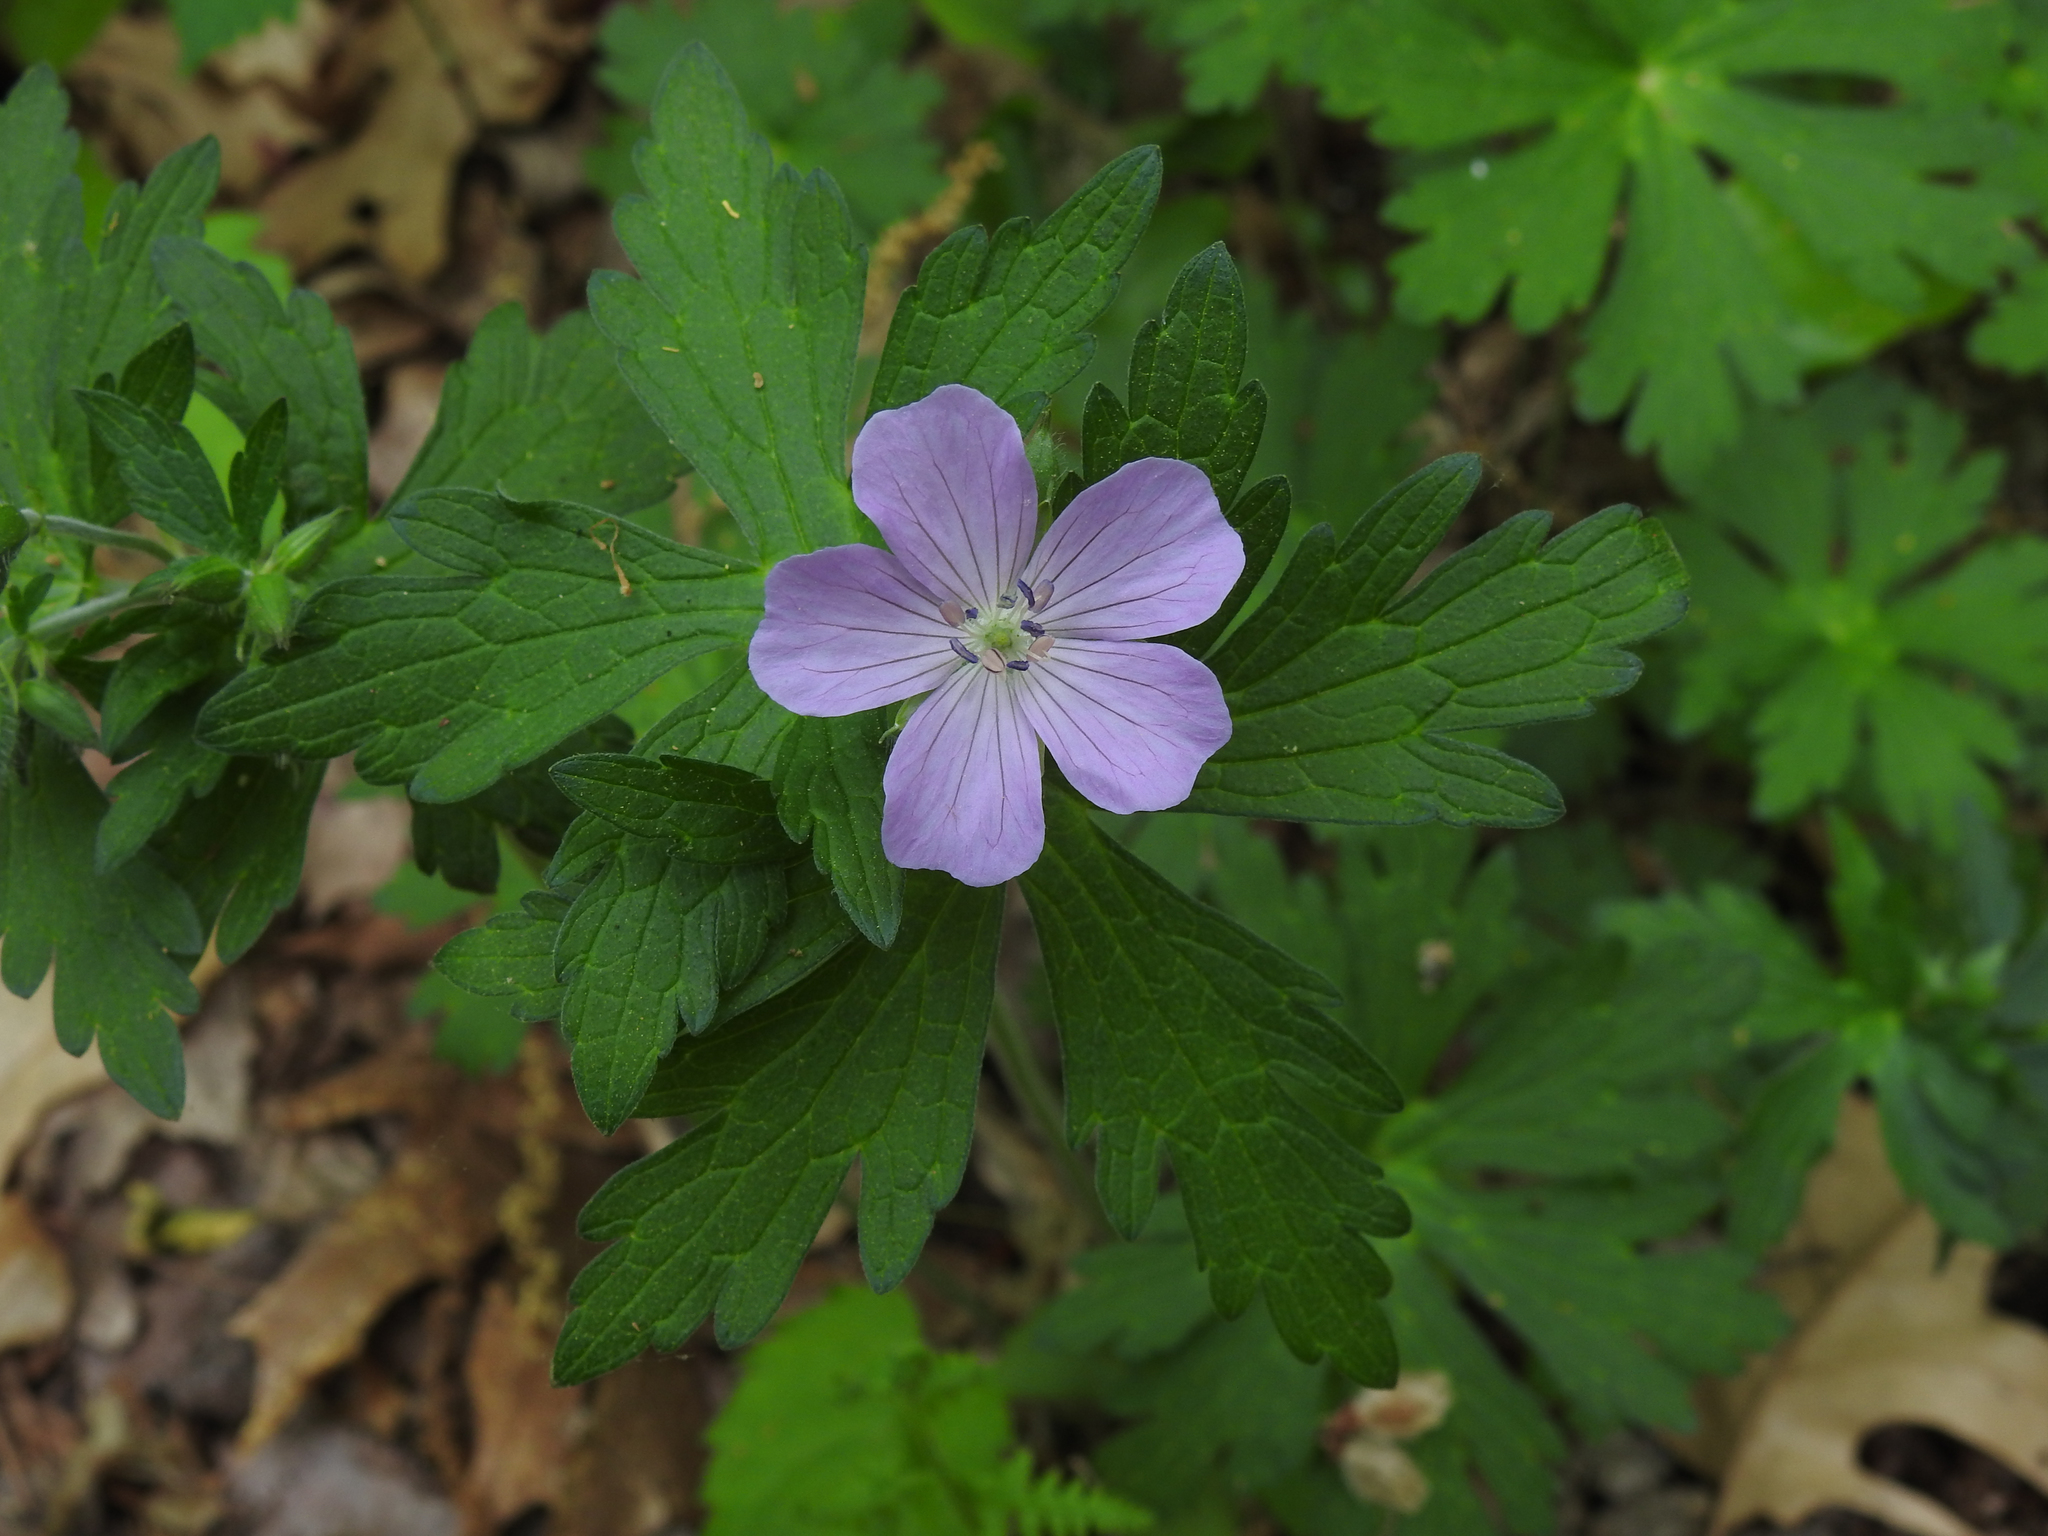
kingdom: Plantae
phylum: Tracheophyta
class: Magnoliopsida
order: Geraniales
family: Geraniaceae
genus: Geranium
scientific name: Geranium maculatum
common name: Spotted geranium
